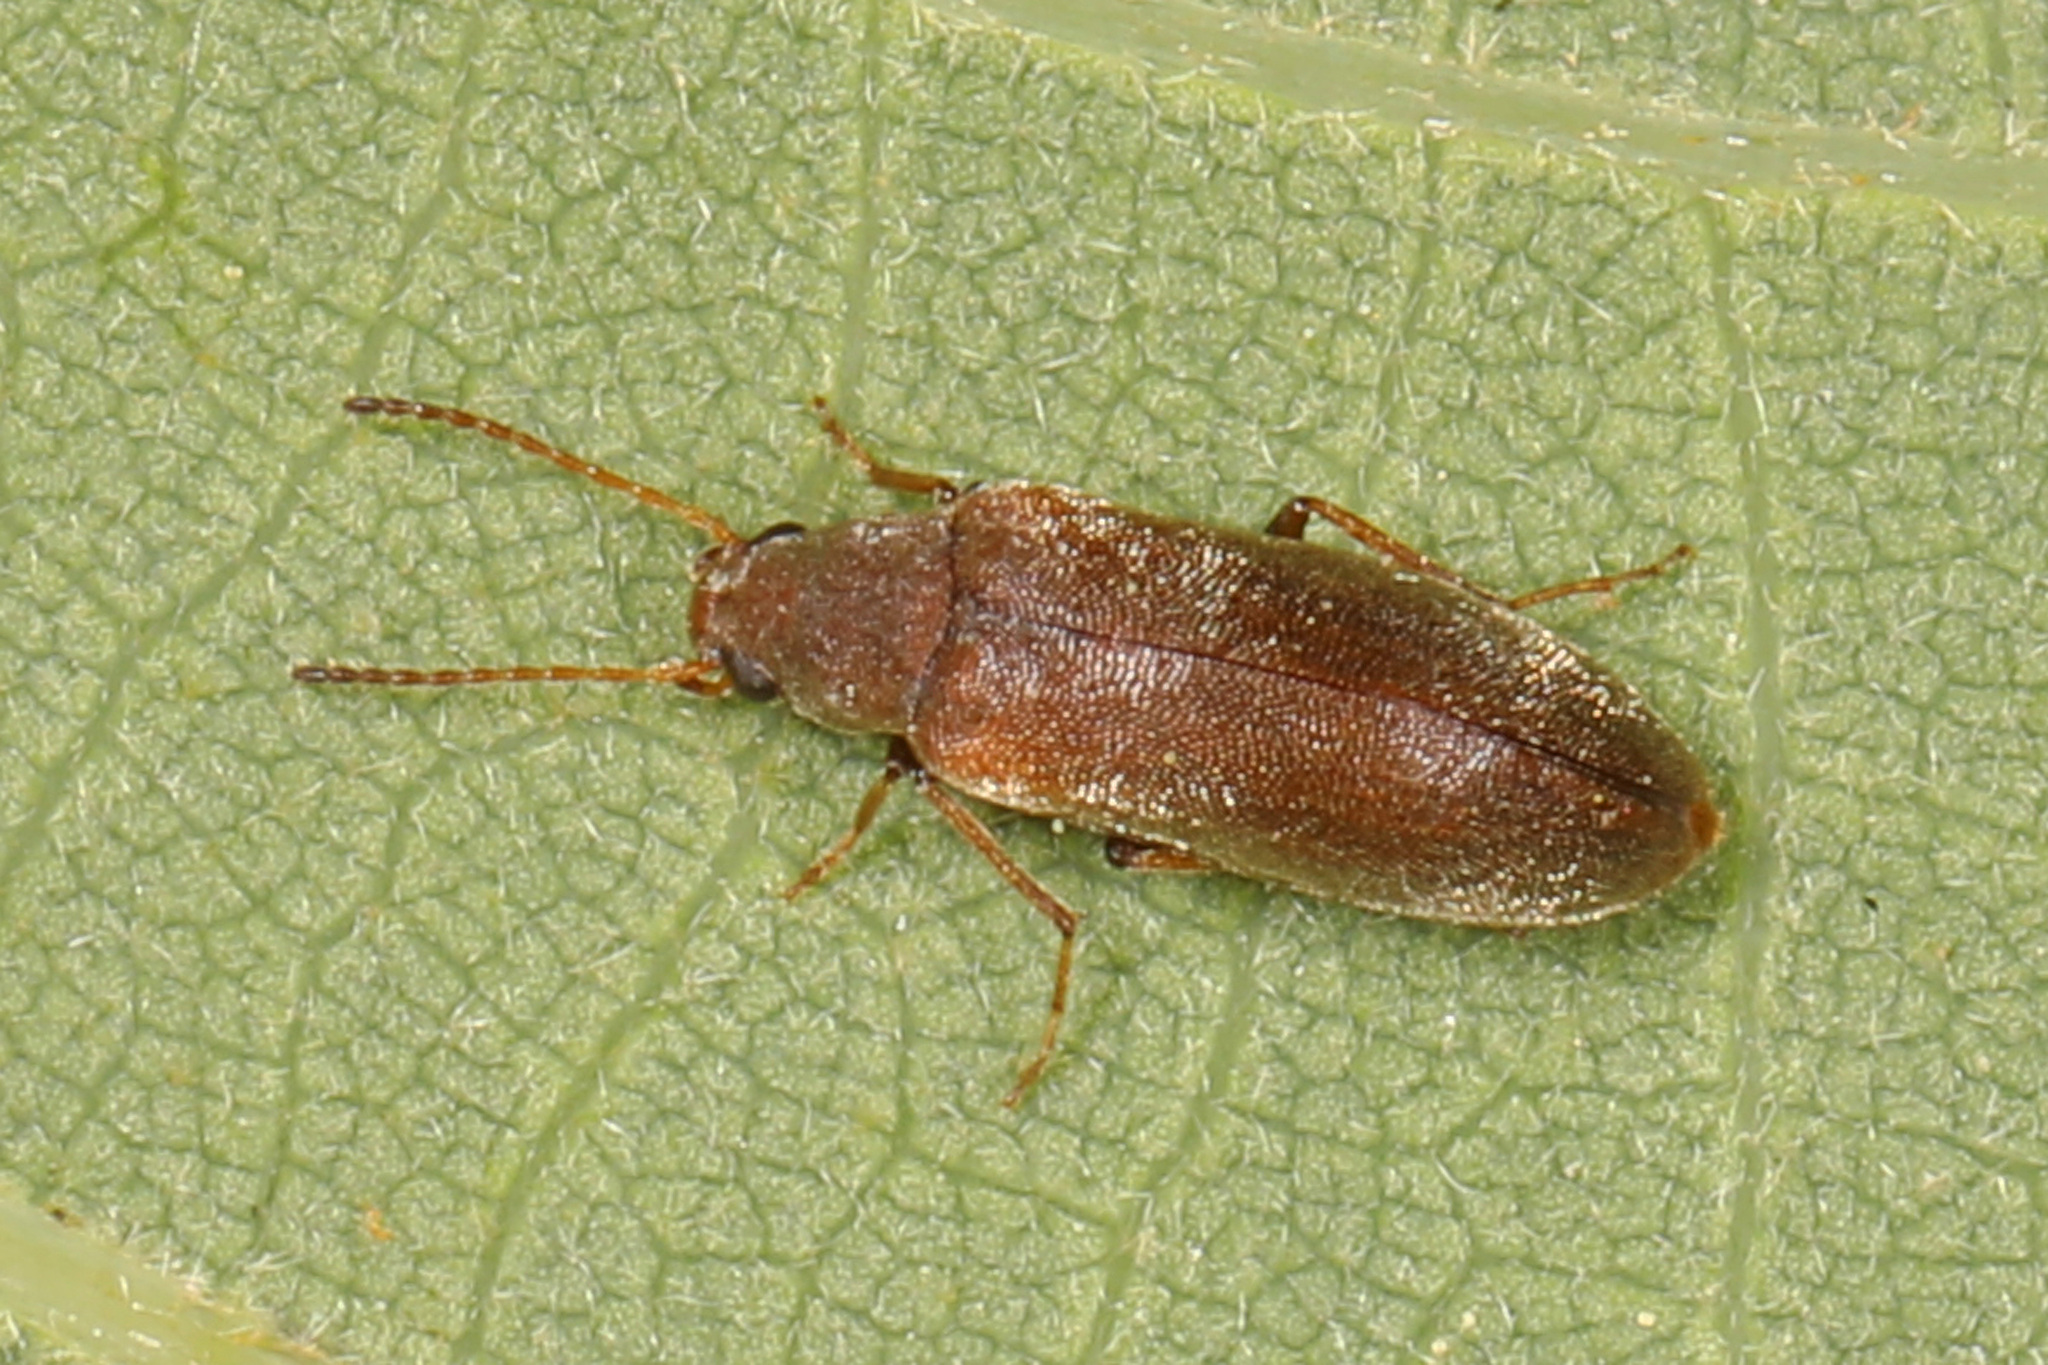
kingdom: Animalia
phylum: Arthropoda
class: Insecta
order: Coleoptera
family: Melandryidae
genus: Microtonus
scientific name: Microtonus sericans
